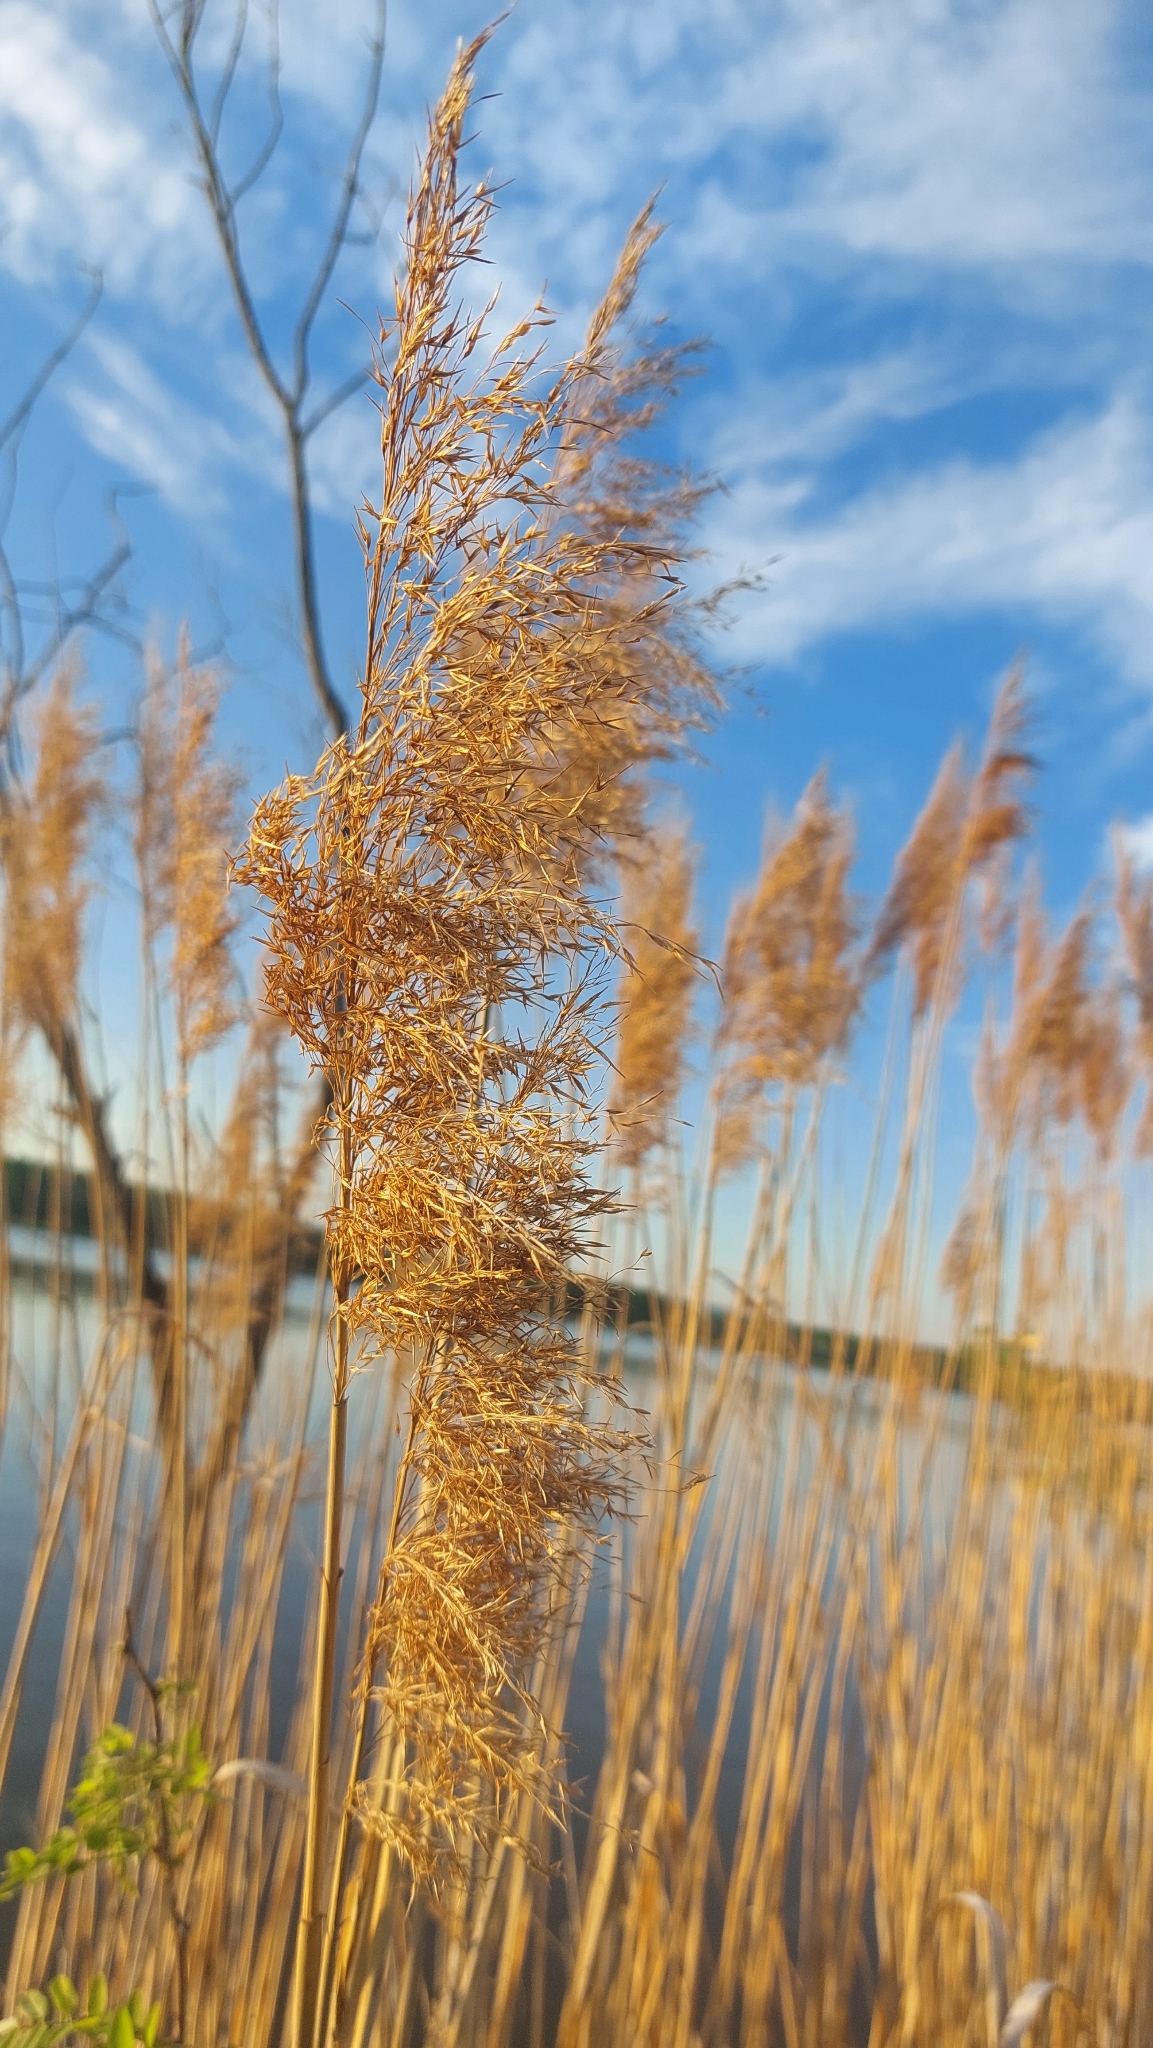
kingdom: Plantae
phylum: Tracheophyta
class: Liliopsida
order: Poales
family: Poaceae
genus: Phragmites
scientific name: Phragmites australis
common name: Common reed
